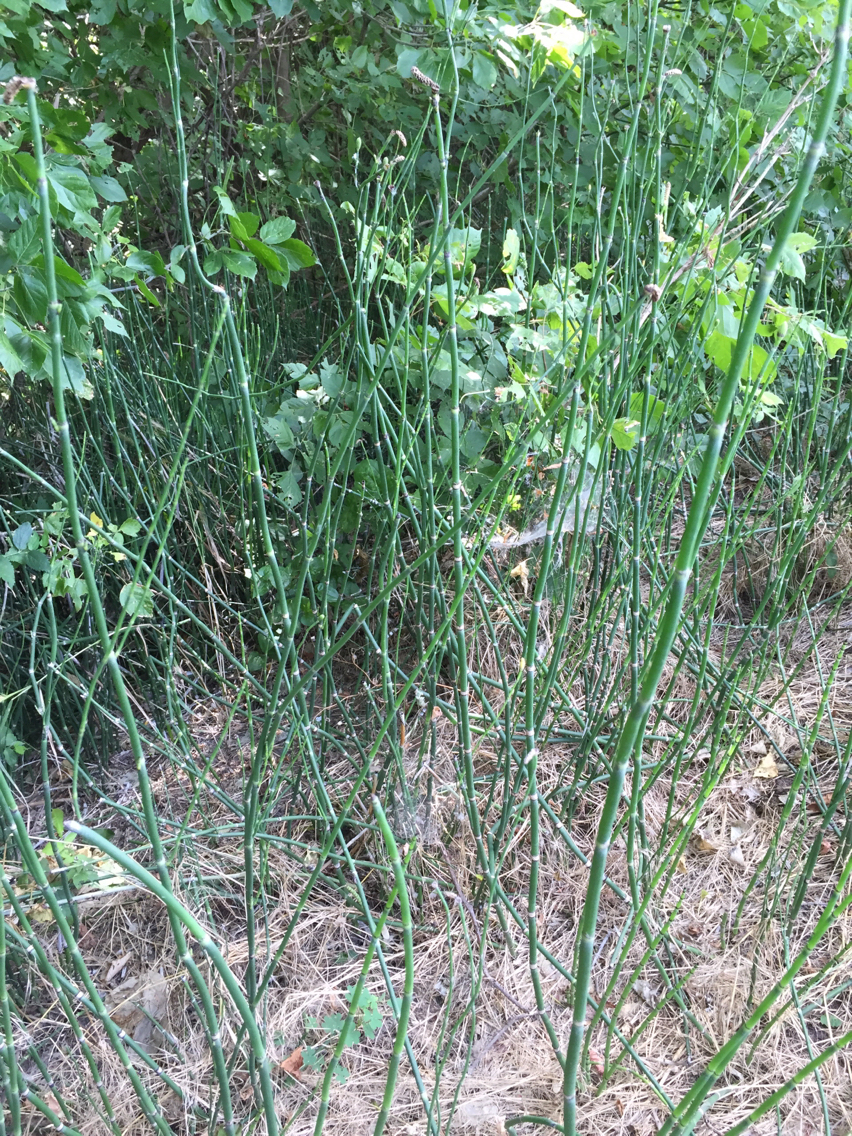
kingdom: Plantae
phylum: Tracheophyta
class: Polypodiopsida
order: Equisetales
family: Equisetaceae
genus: Equisetum
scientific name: Equisetum hyemale
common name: Rough horsetail
